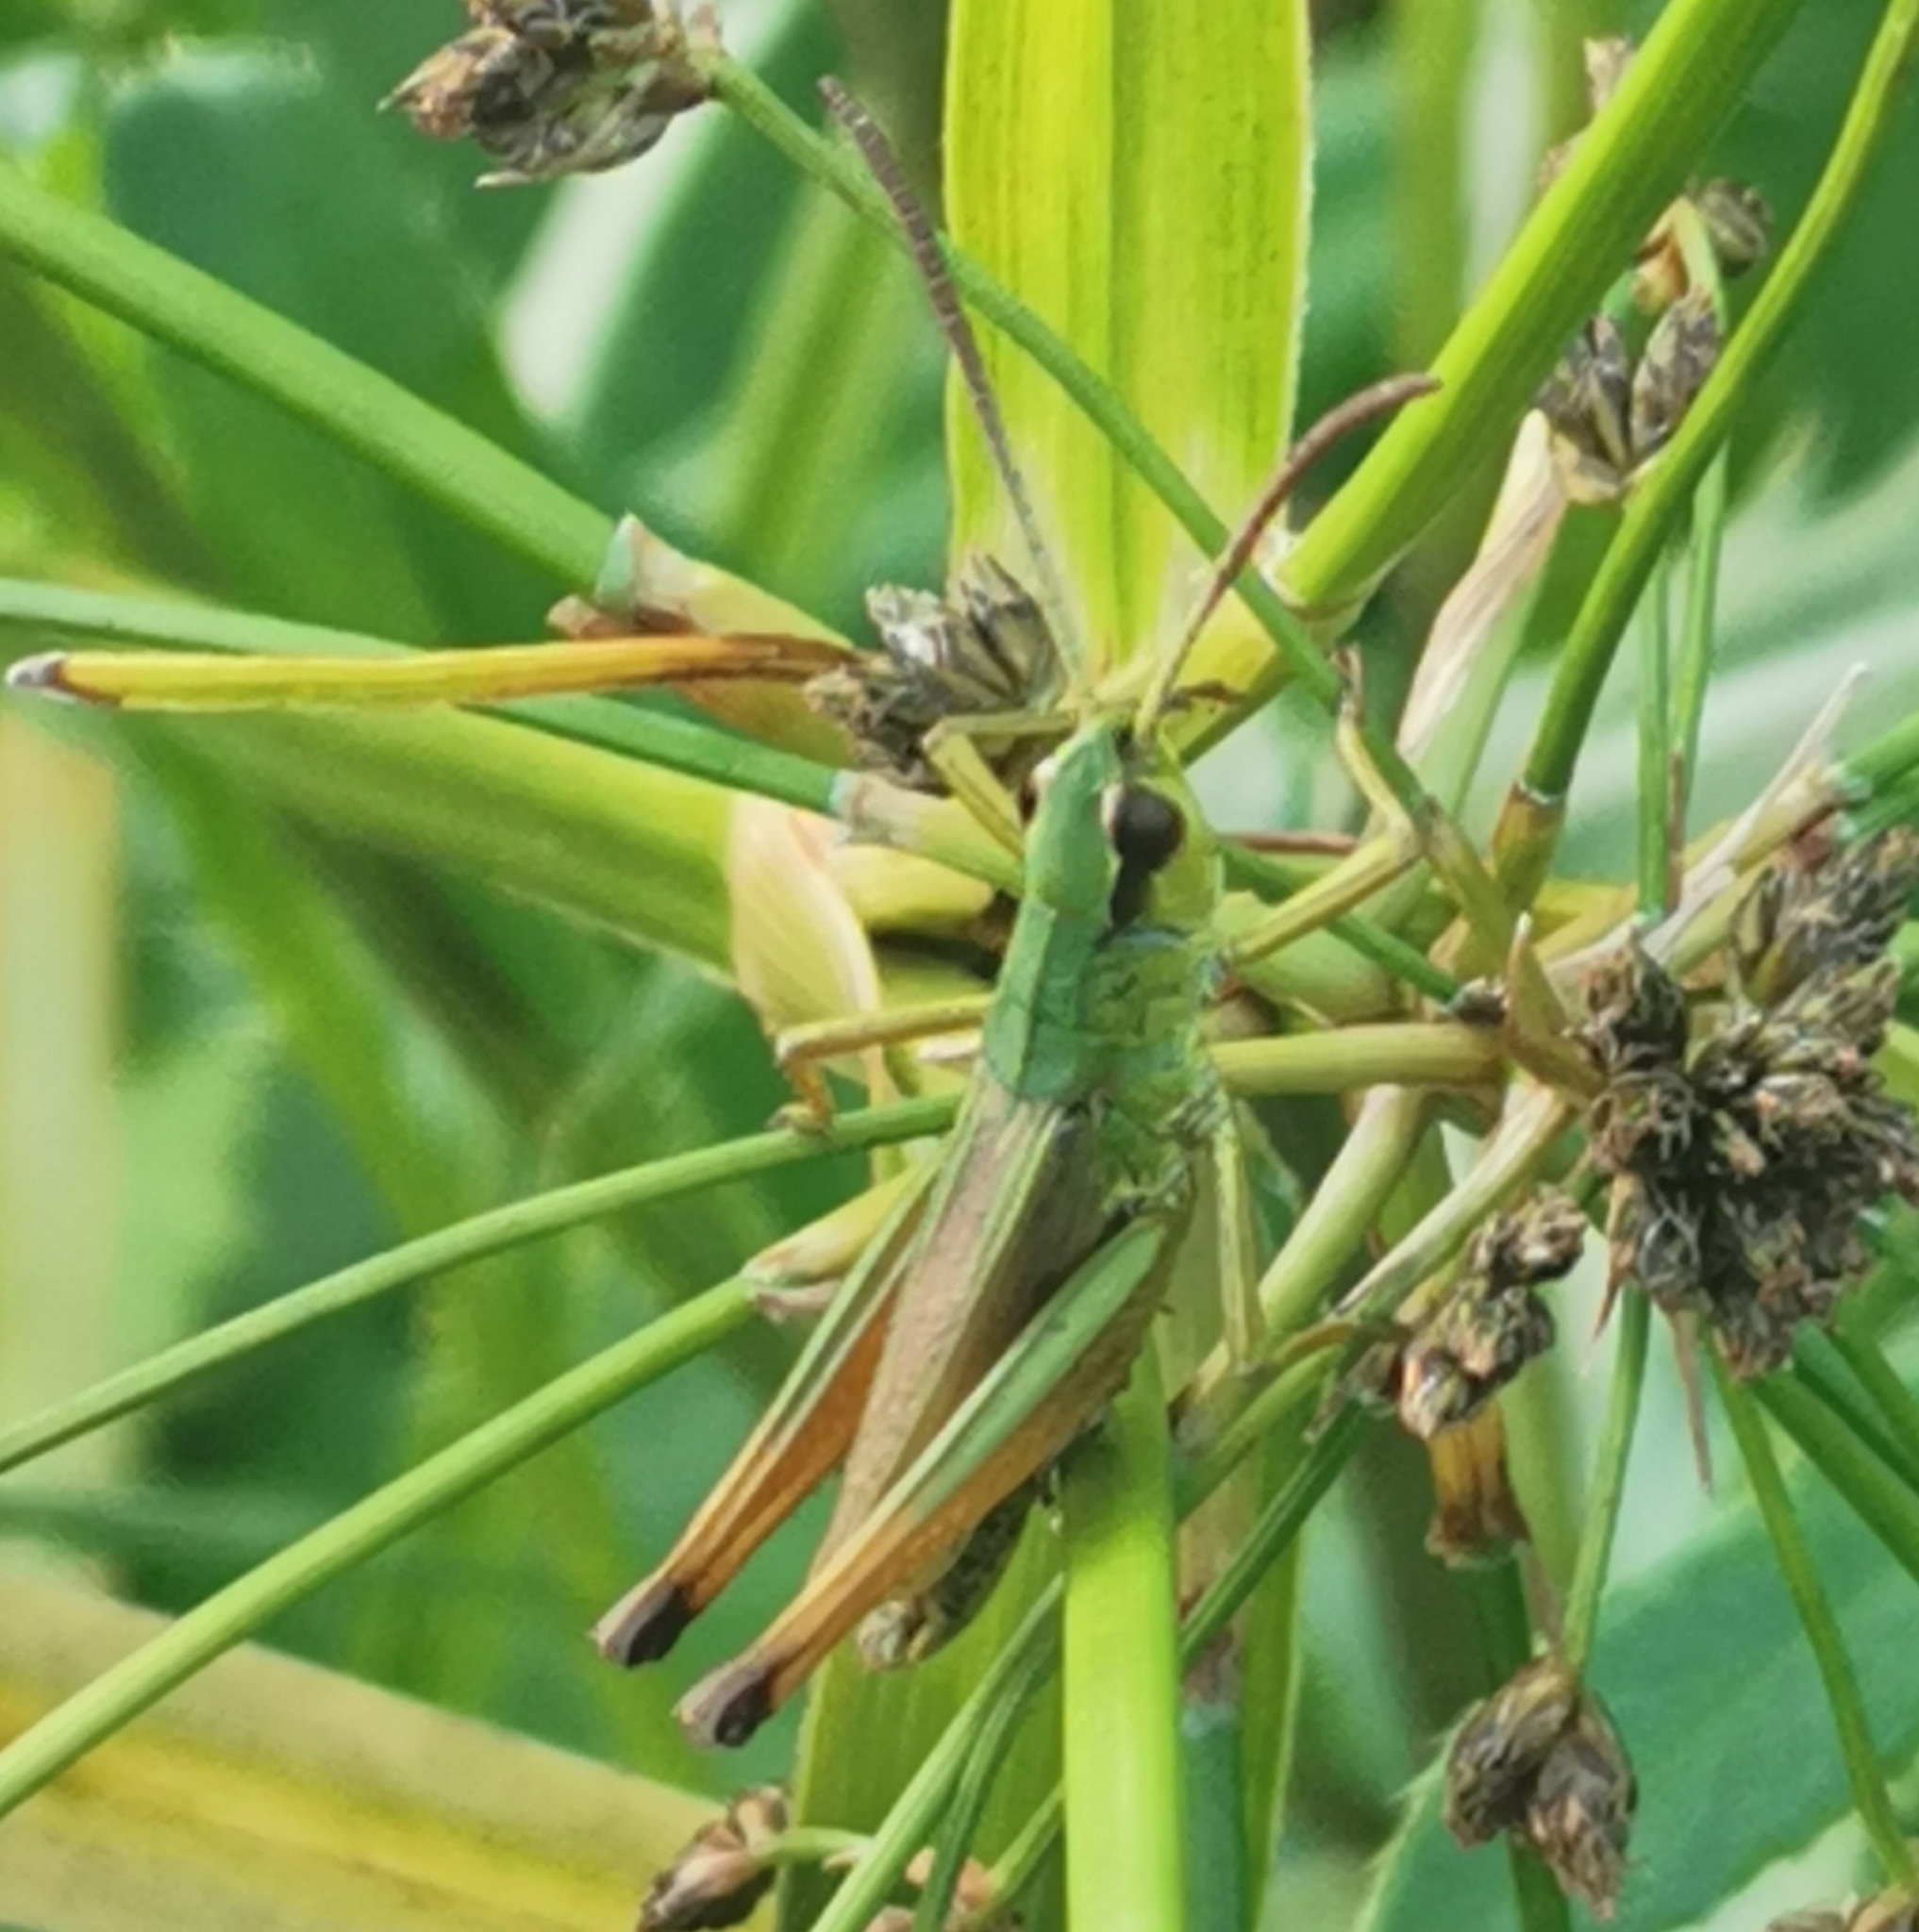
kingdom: Animalia
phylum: Arthropoda
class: Insecta
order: Orthoptera
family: Acrididae
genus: Pseudochorthippus
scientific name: Pseudochorthippus parallelus
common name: Meadow grasshopper
